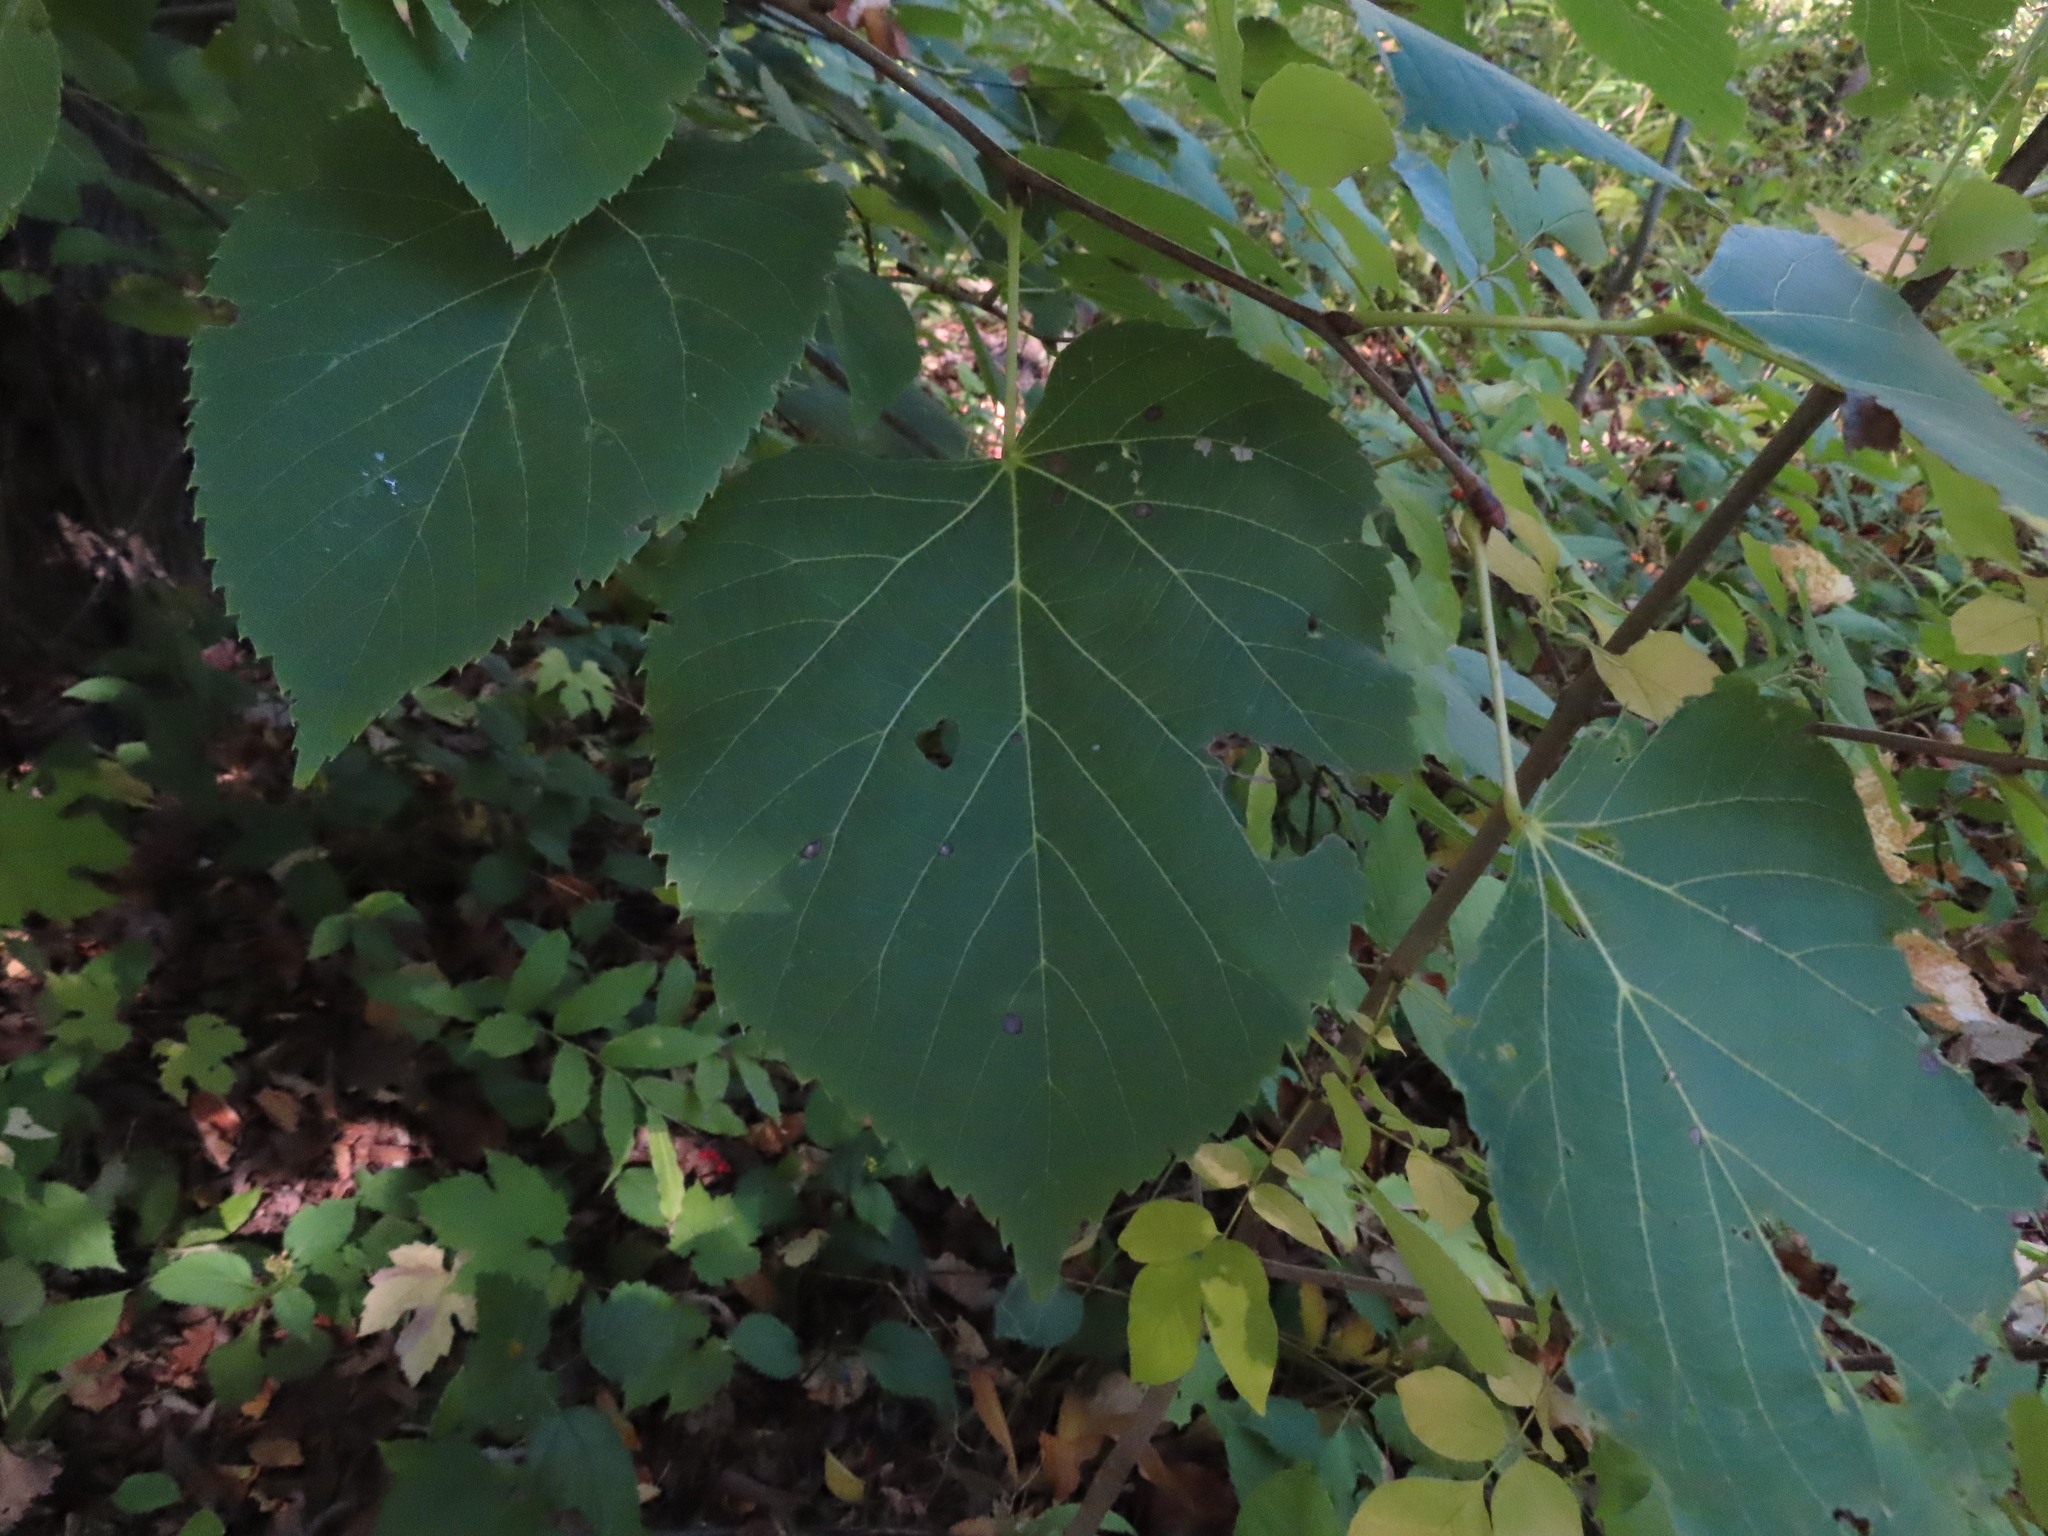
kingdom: Plantae
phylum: Tracheophyta
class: Magnoliopsida
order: Malvales
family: Malvaceae
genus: Tilia
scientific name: Tilia americana
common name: Basswood
